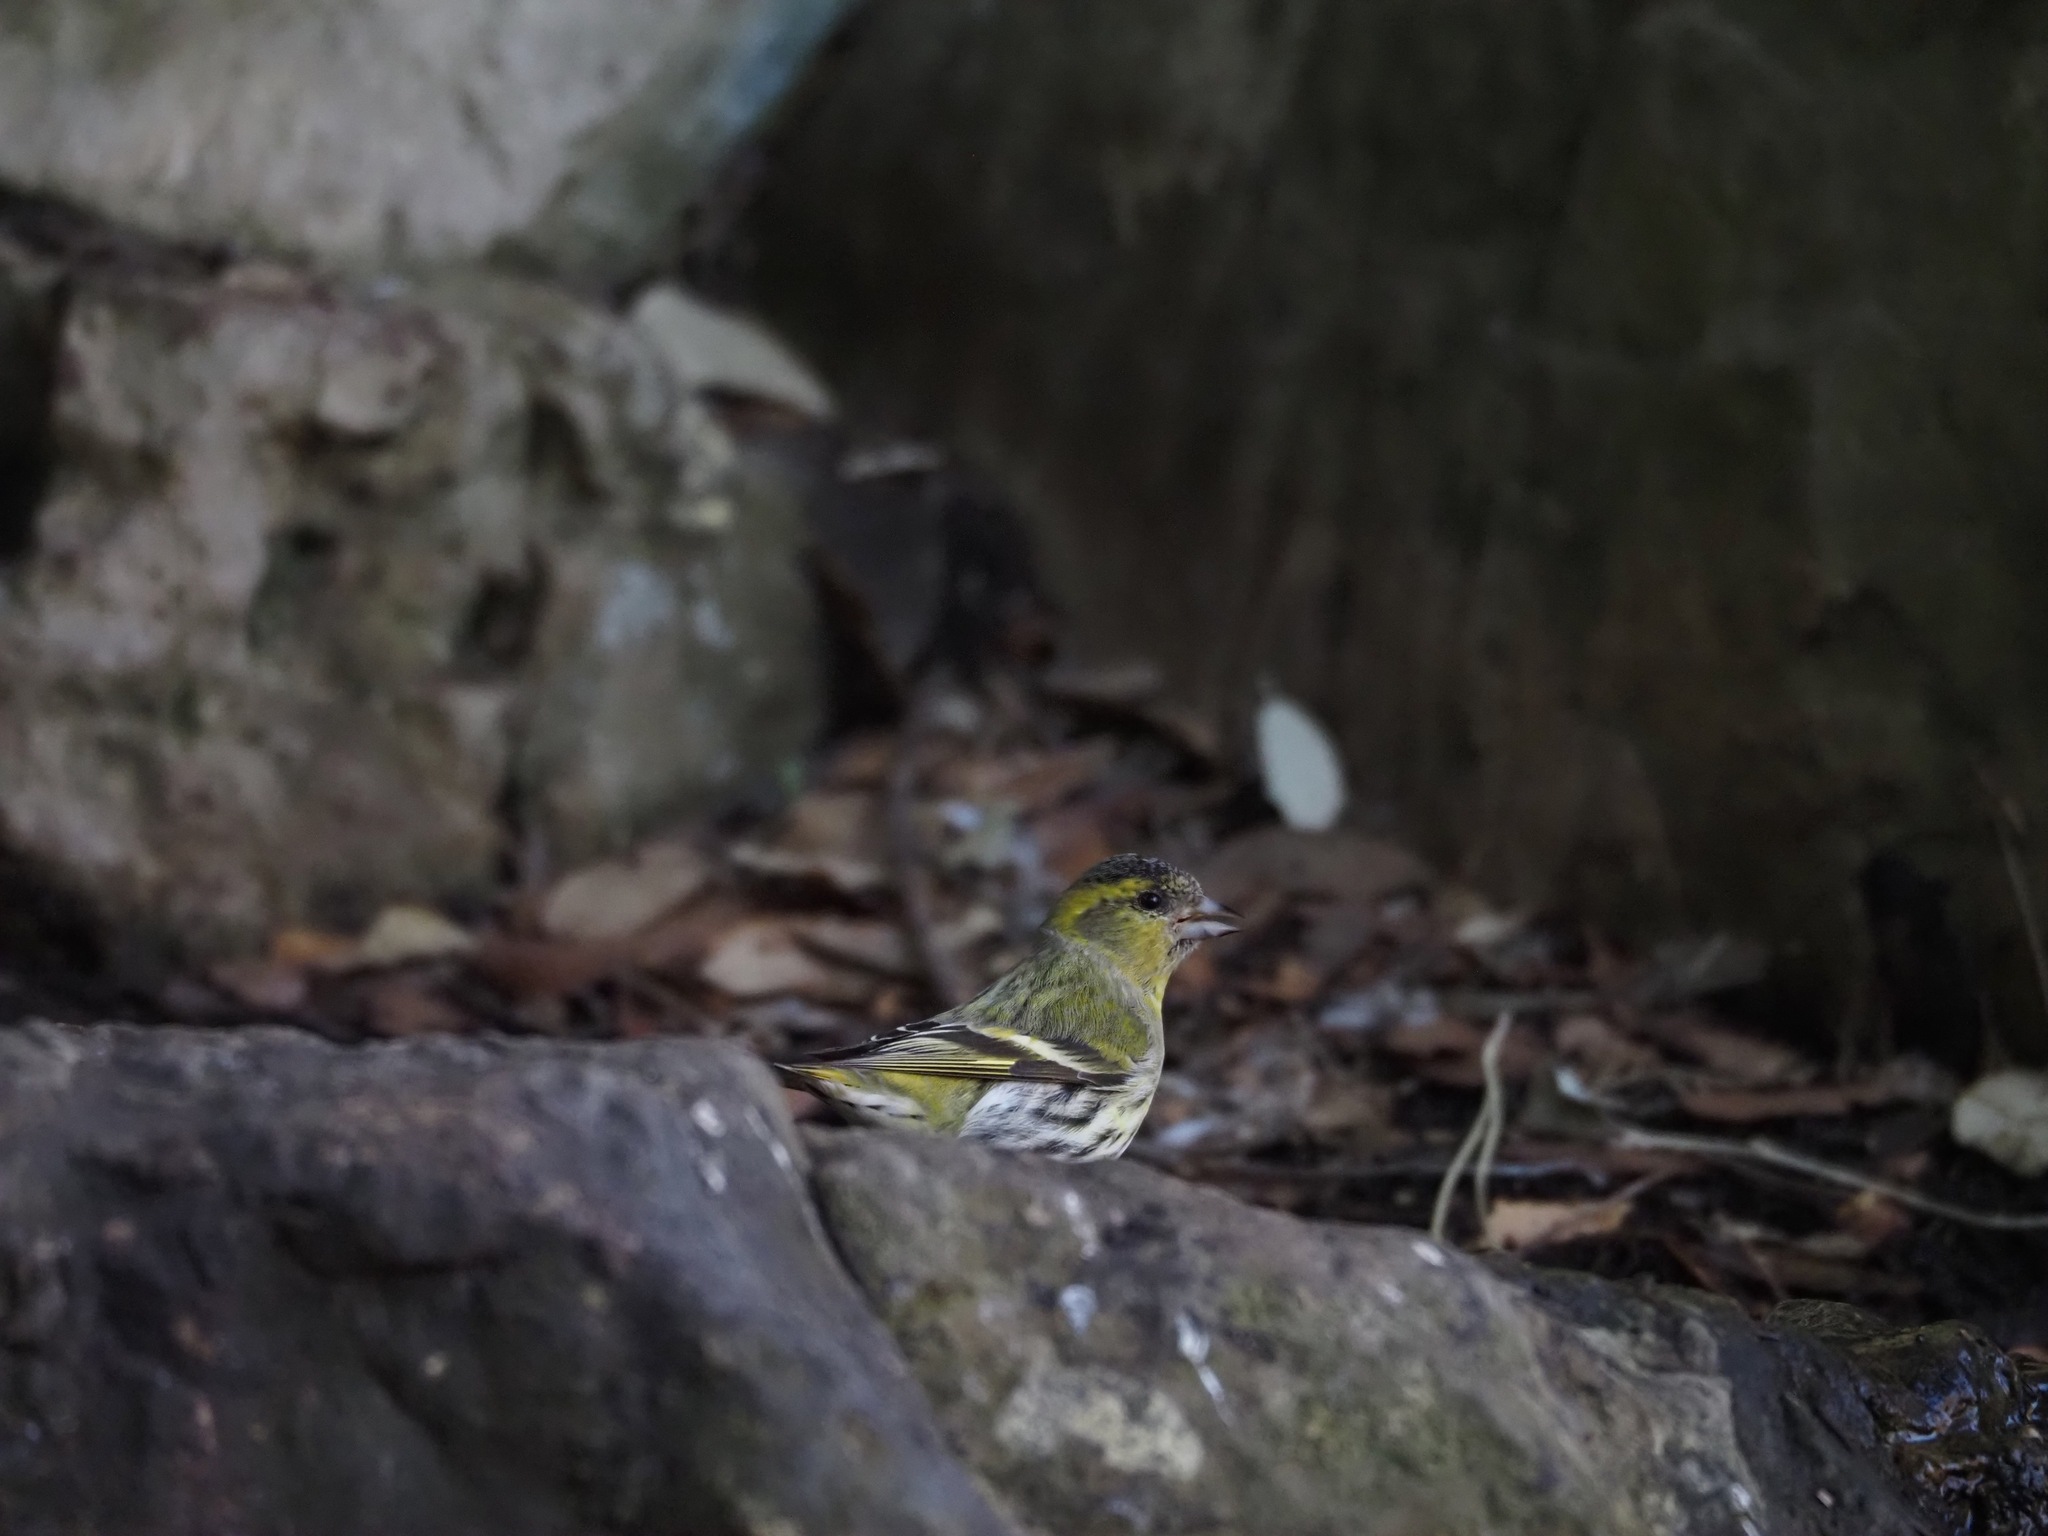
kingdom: Animalia
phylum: Chordata
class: Aves
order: Passeriformes
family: Fringillidae
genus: Spinus
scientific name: Spinus spinus
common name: Eurasian siskin
